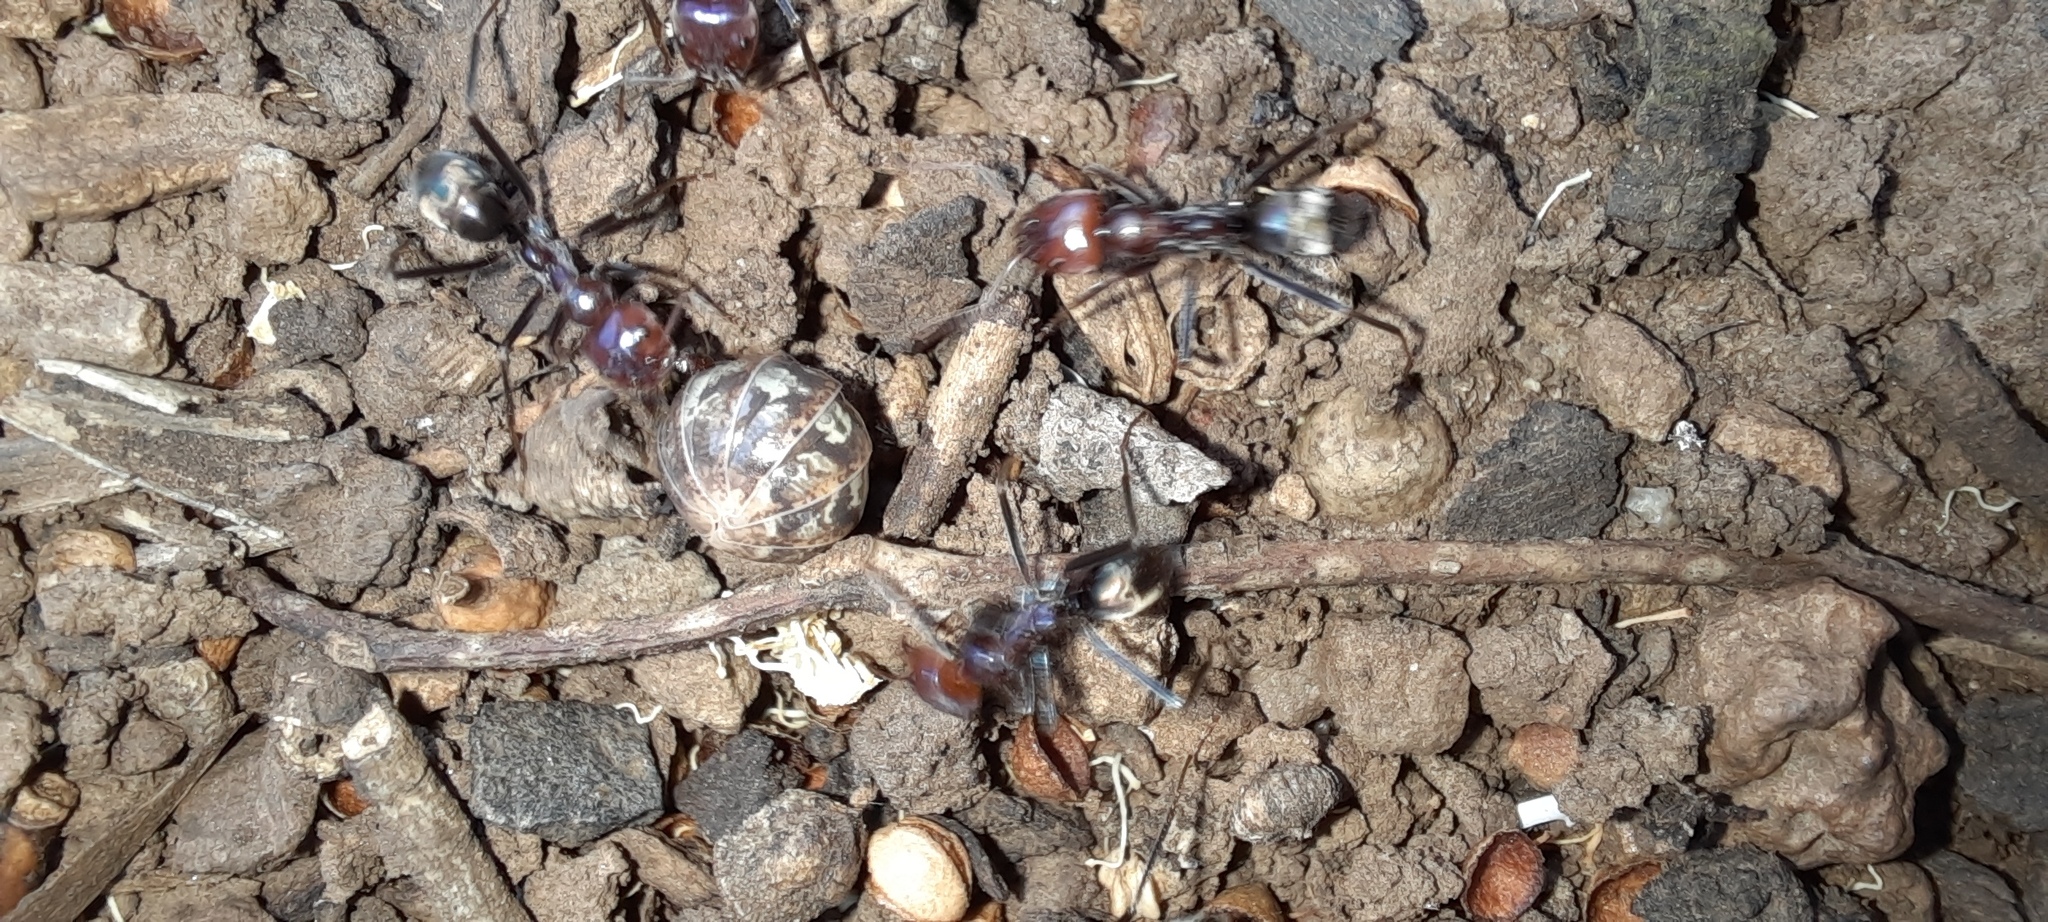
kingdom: Animalia
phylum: Arthropoda
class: Insecta
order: Hymenoptera
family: Formicidae
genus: Iridomyrmex
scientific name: Iridomyrmex purpureus
